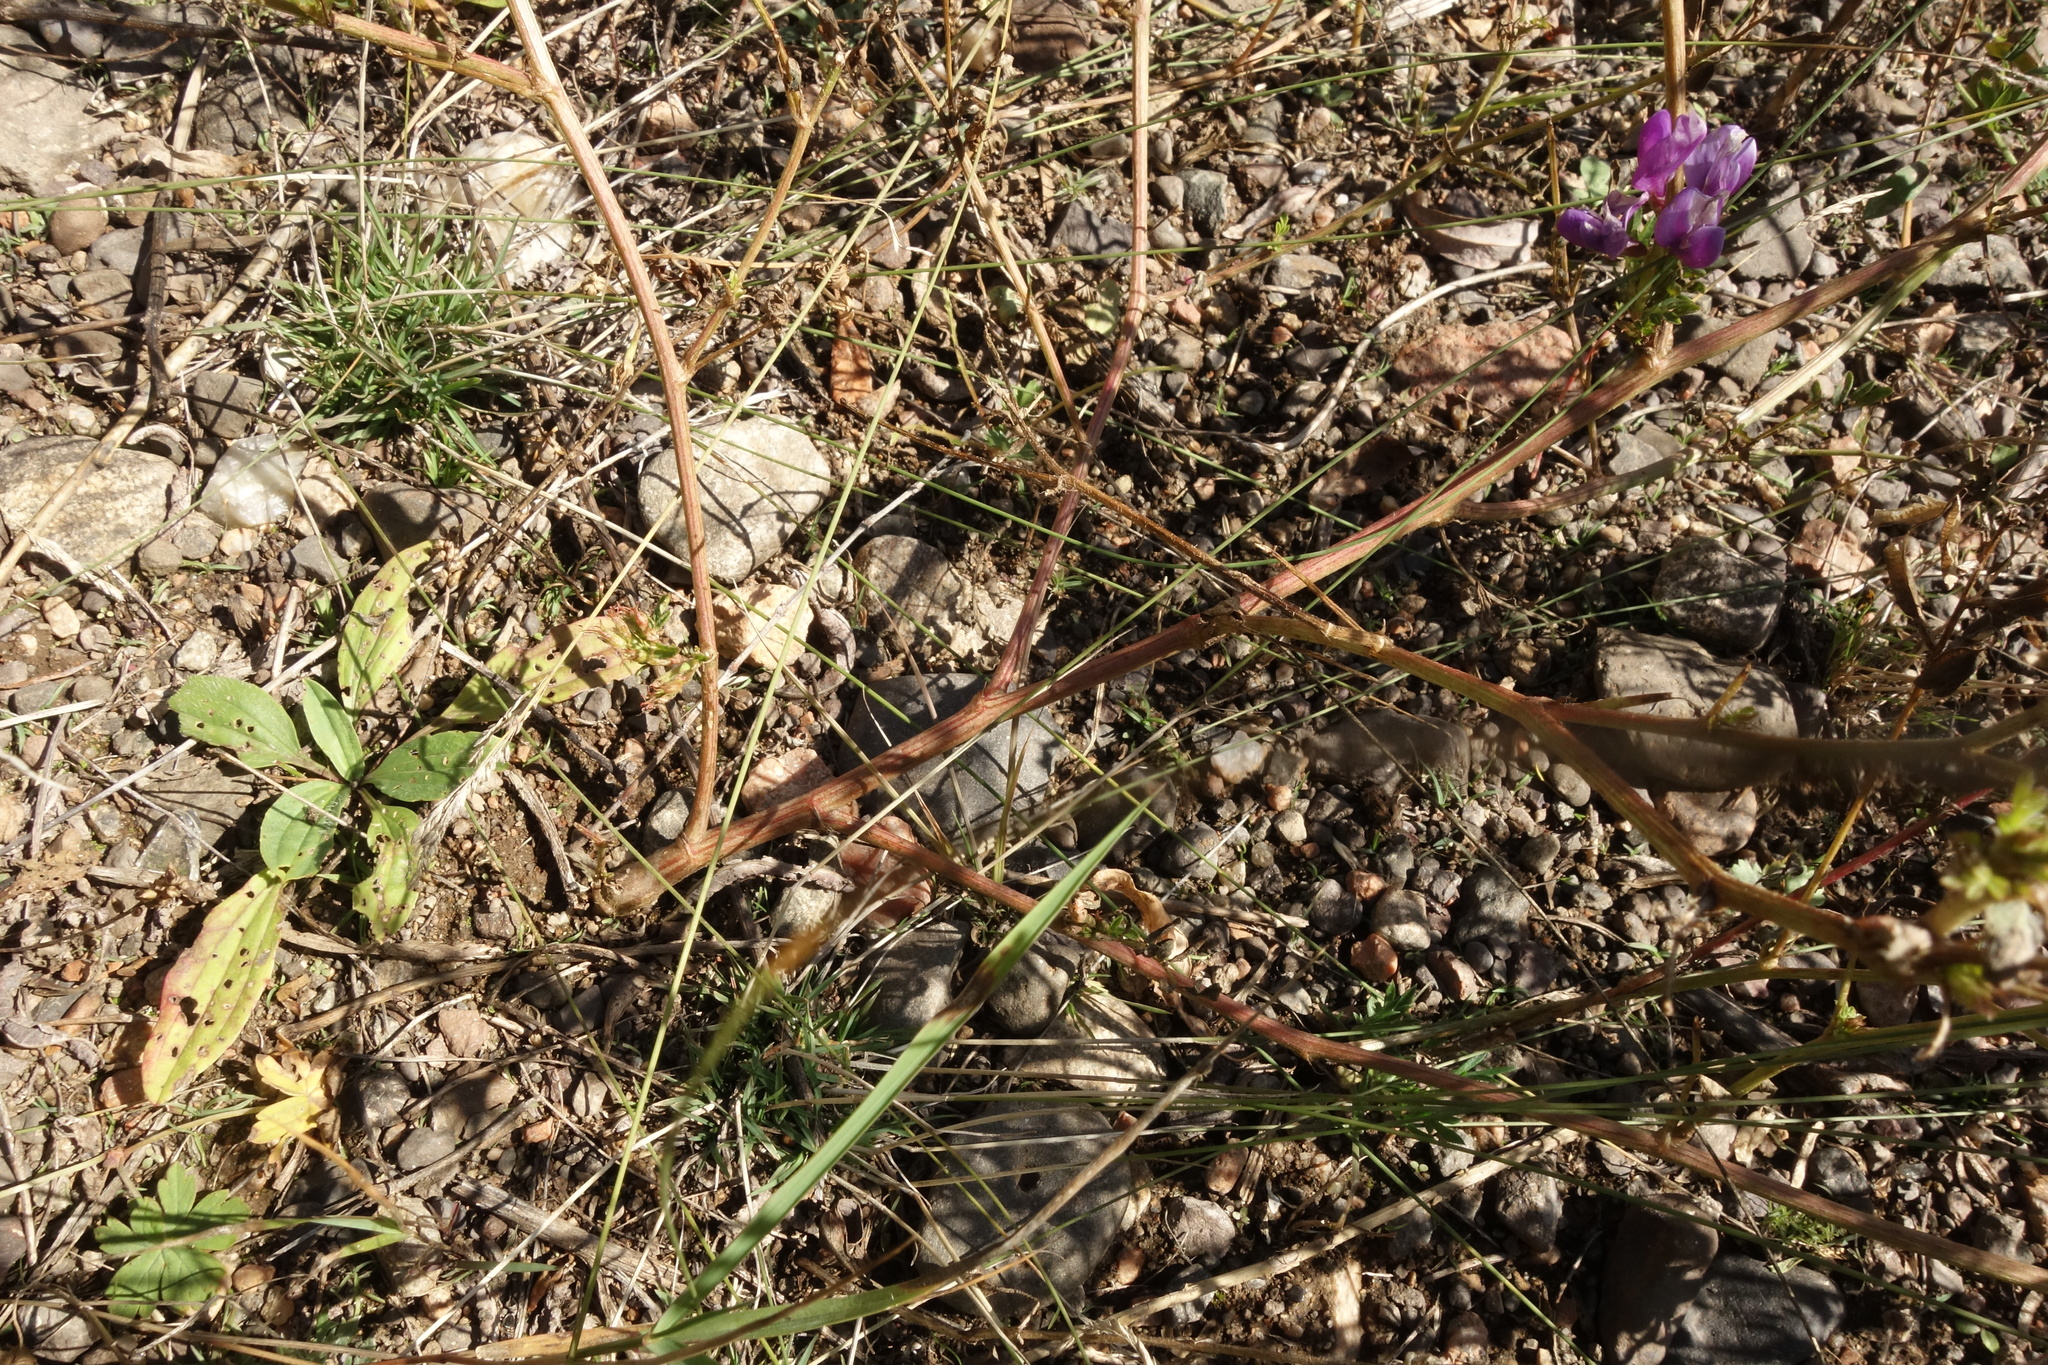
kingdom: Plantae
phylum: Tracheophyta
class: Magnoliopsida
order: Fabales
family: Fabaceae
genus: Astragalus
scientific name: Astragalus davuricus
